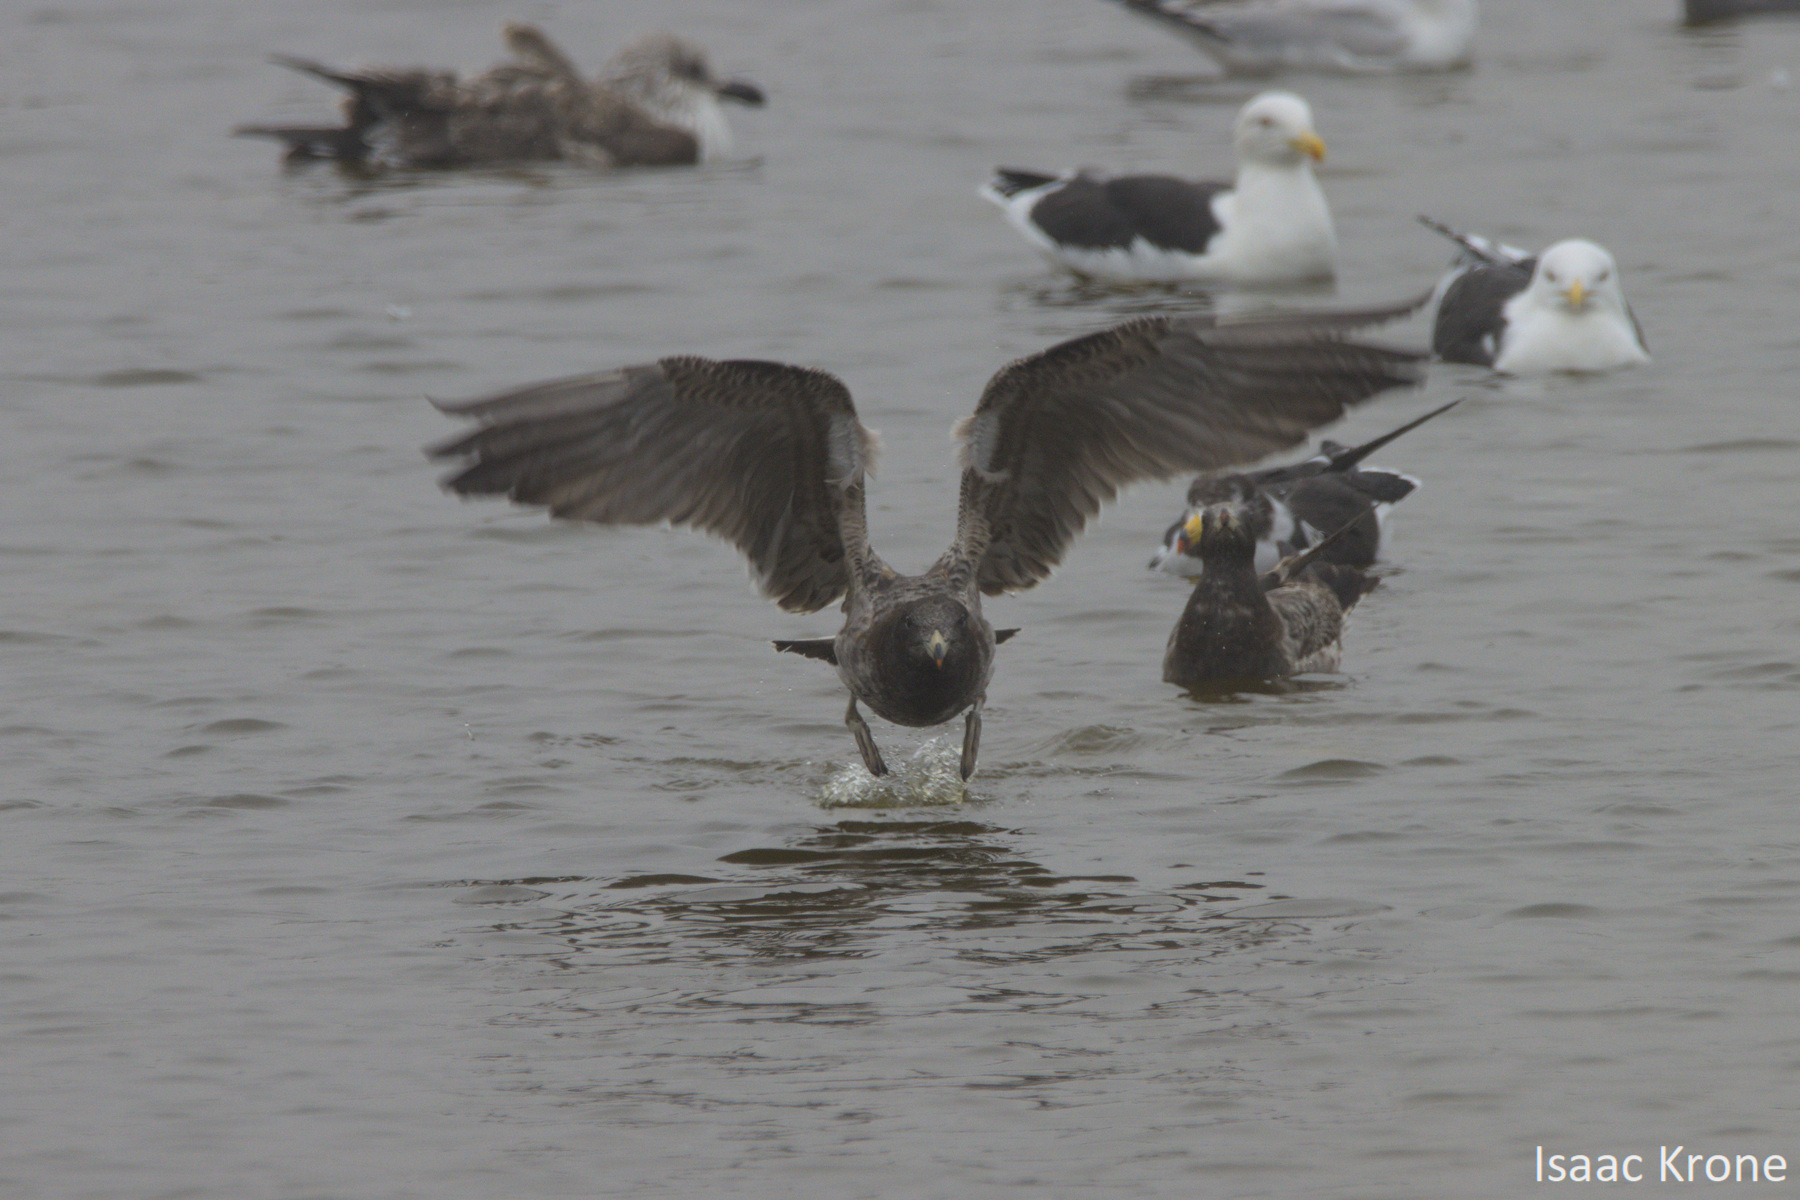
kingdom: Animalia
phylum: Chordata
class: Aves
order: Charadriiformes
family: Laridae
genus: Larus
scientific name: Larus belcheri
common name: Belcher's gull
